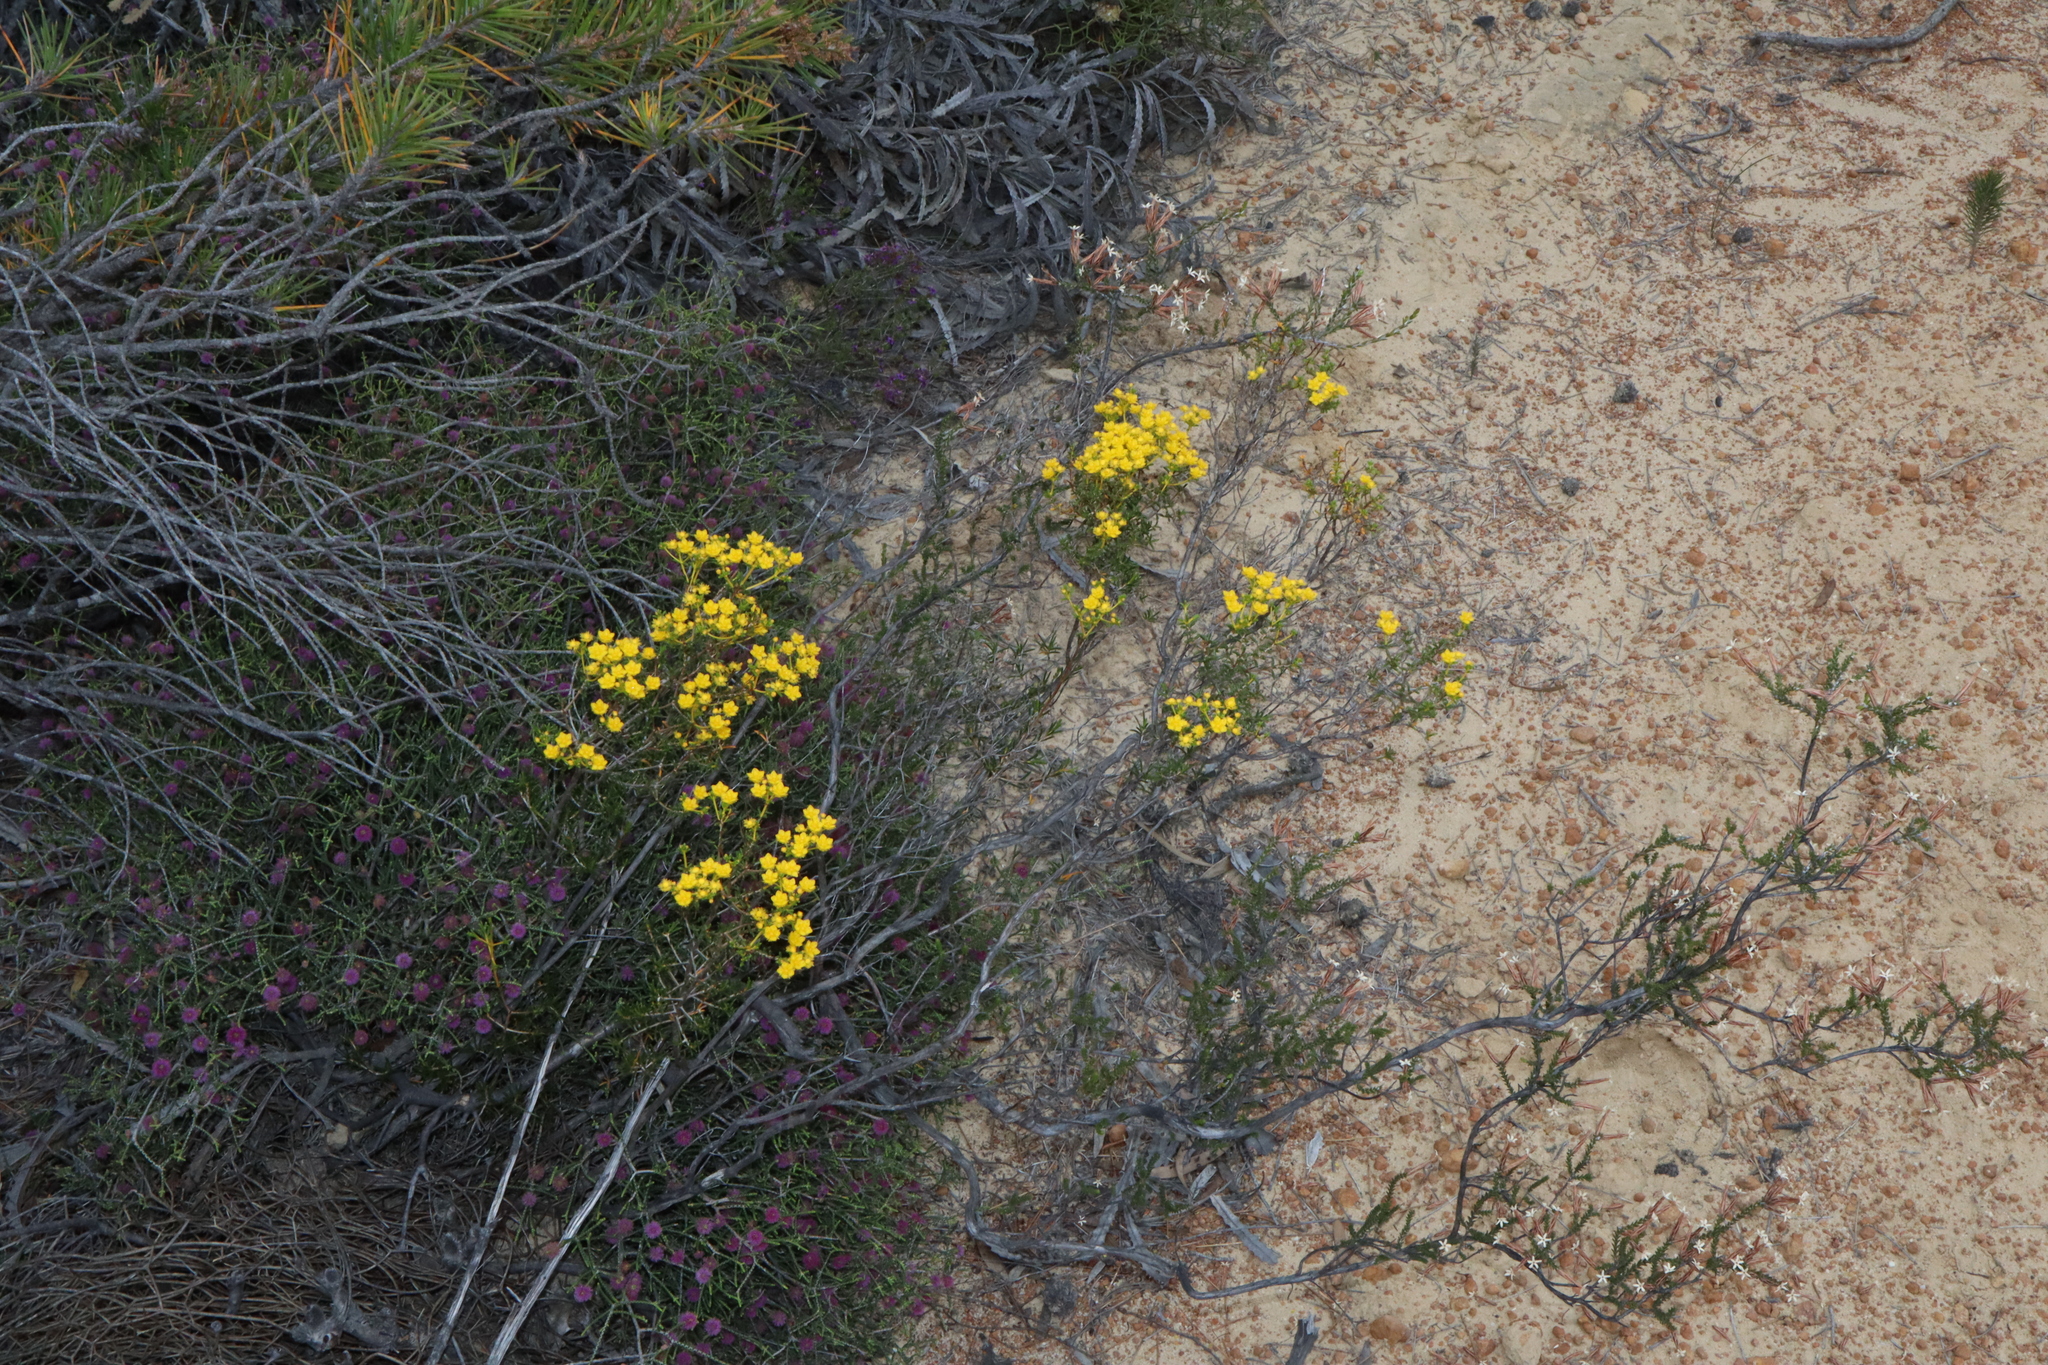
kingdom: Plantae
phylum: Tracheophyta
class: Magnoliopsida
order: Myrtales
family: Myrtaceae
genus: Verticordia
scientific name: Verticordia integra
